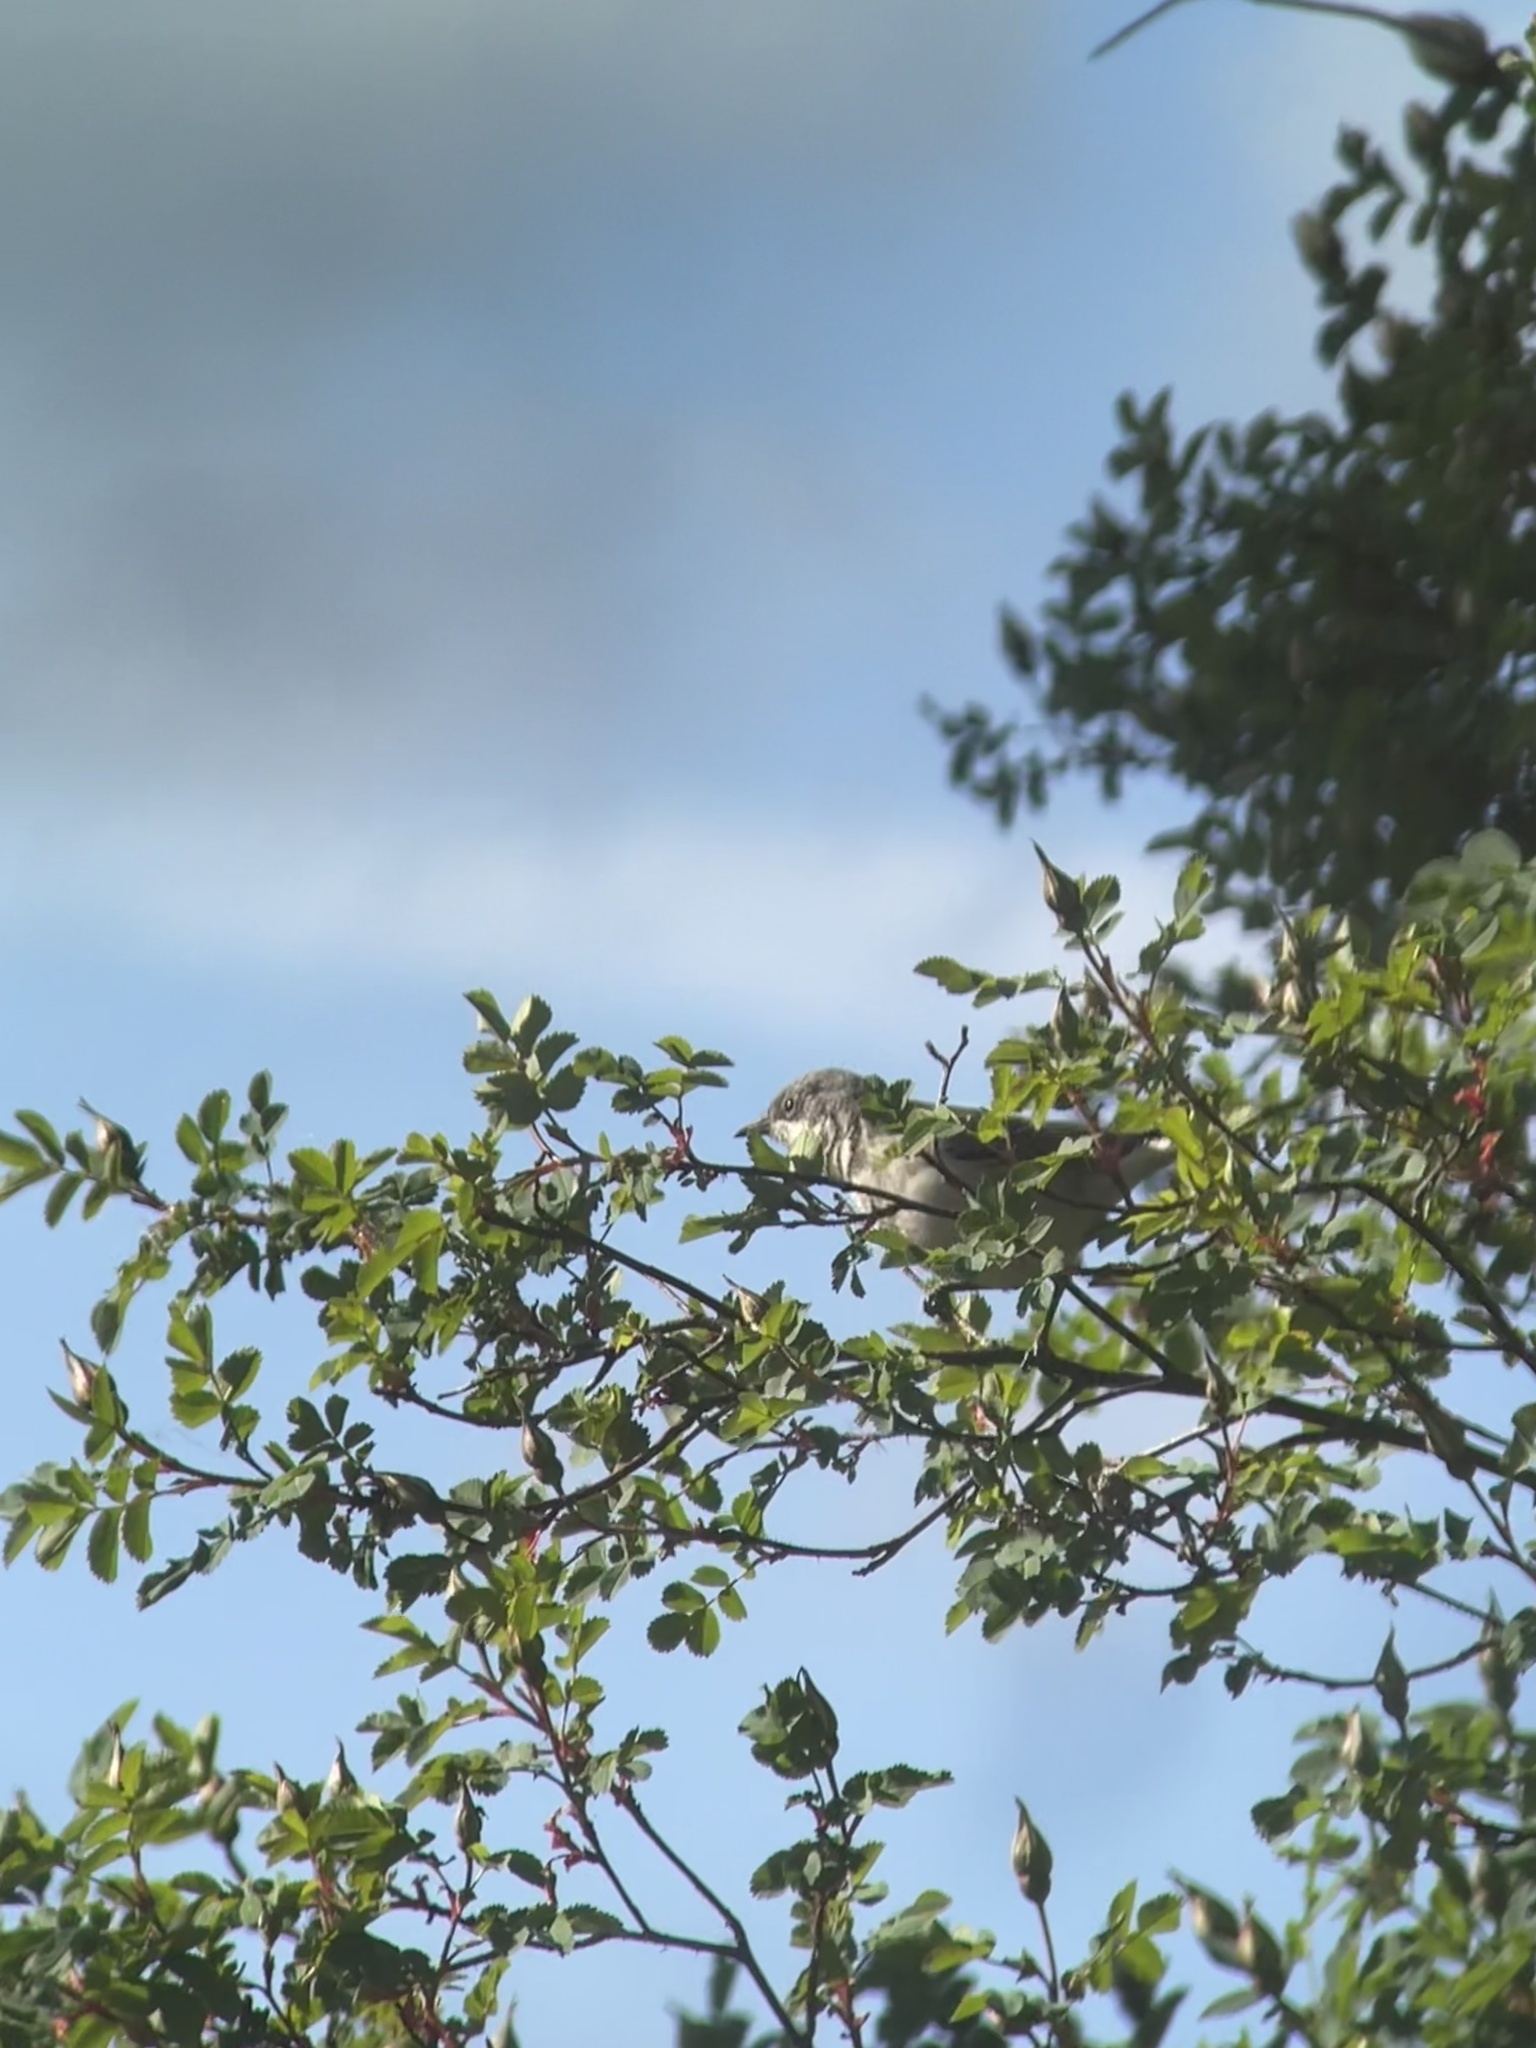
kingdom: Animalia
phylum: Chordata
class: Aves
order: Passeriformes
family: Sylviidae
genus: Sylvia
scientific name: Sylvia curruca
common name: Lesser whitethroat
